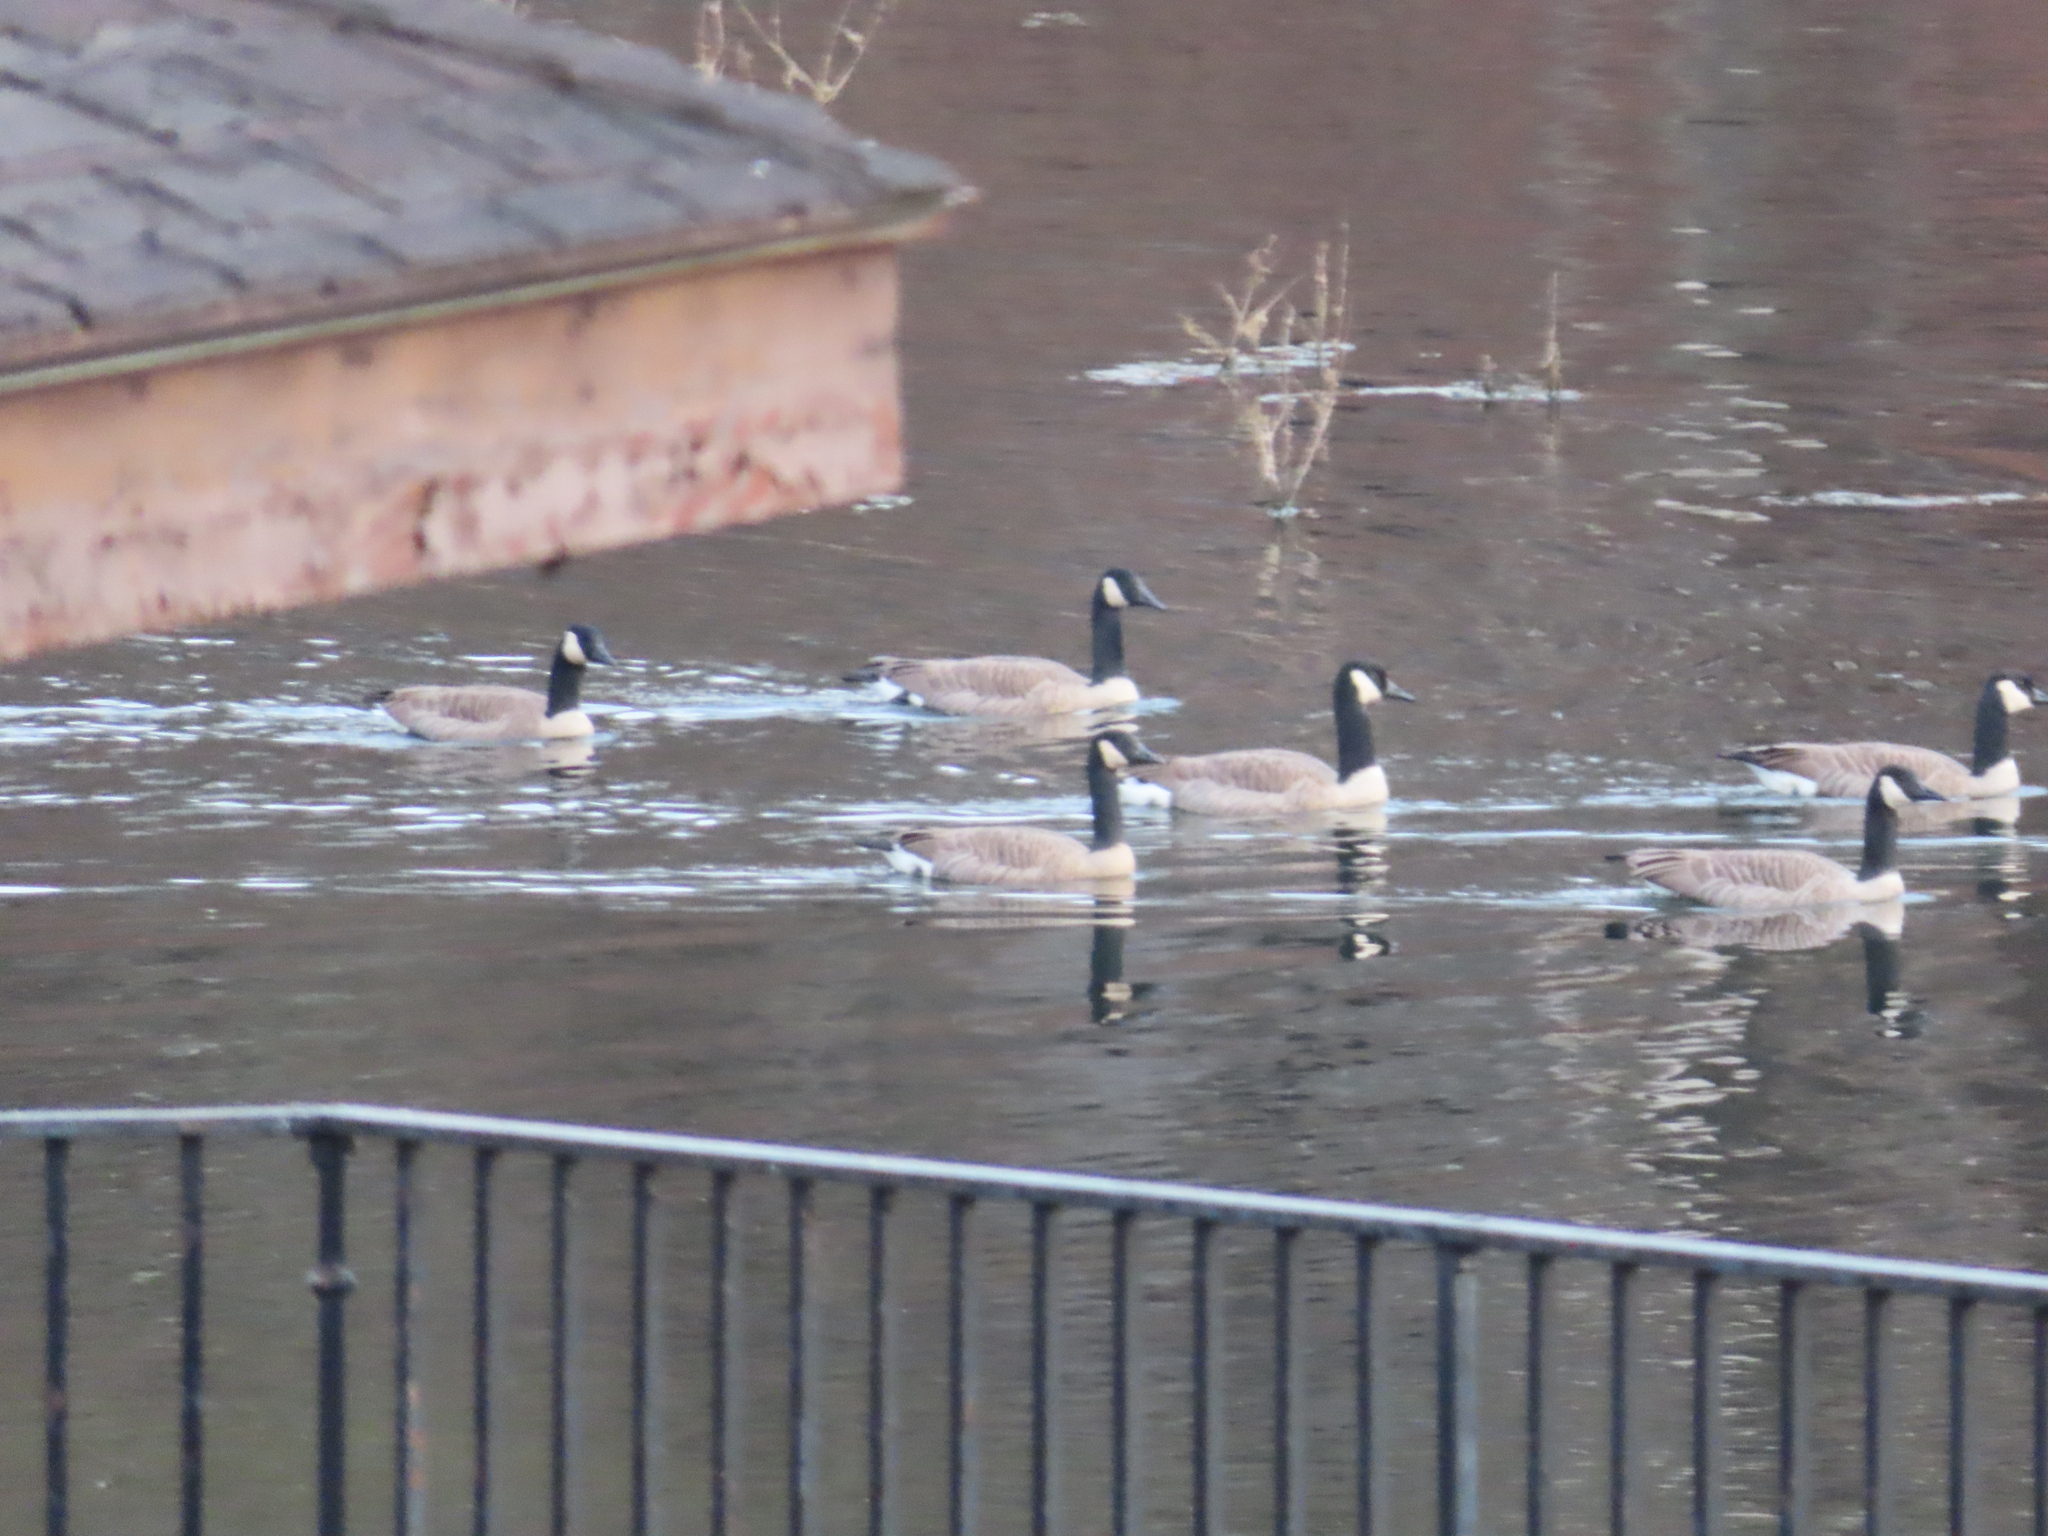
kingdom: Animalia
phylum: Chordata
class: Aves
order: Anseriformes
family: Anatidae
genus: Branta
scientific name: Branta canadensis
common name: Canada goose
